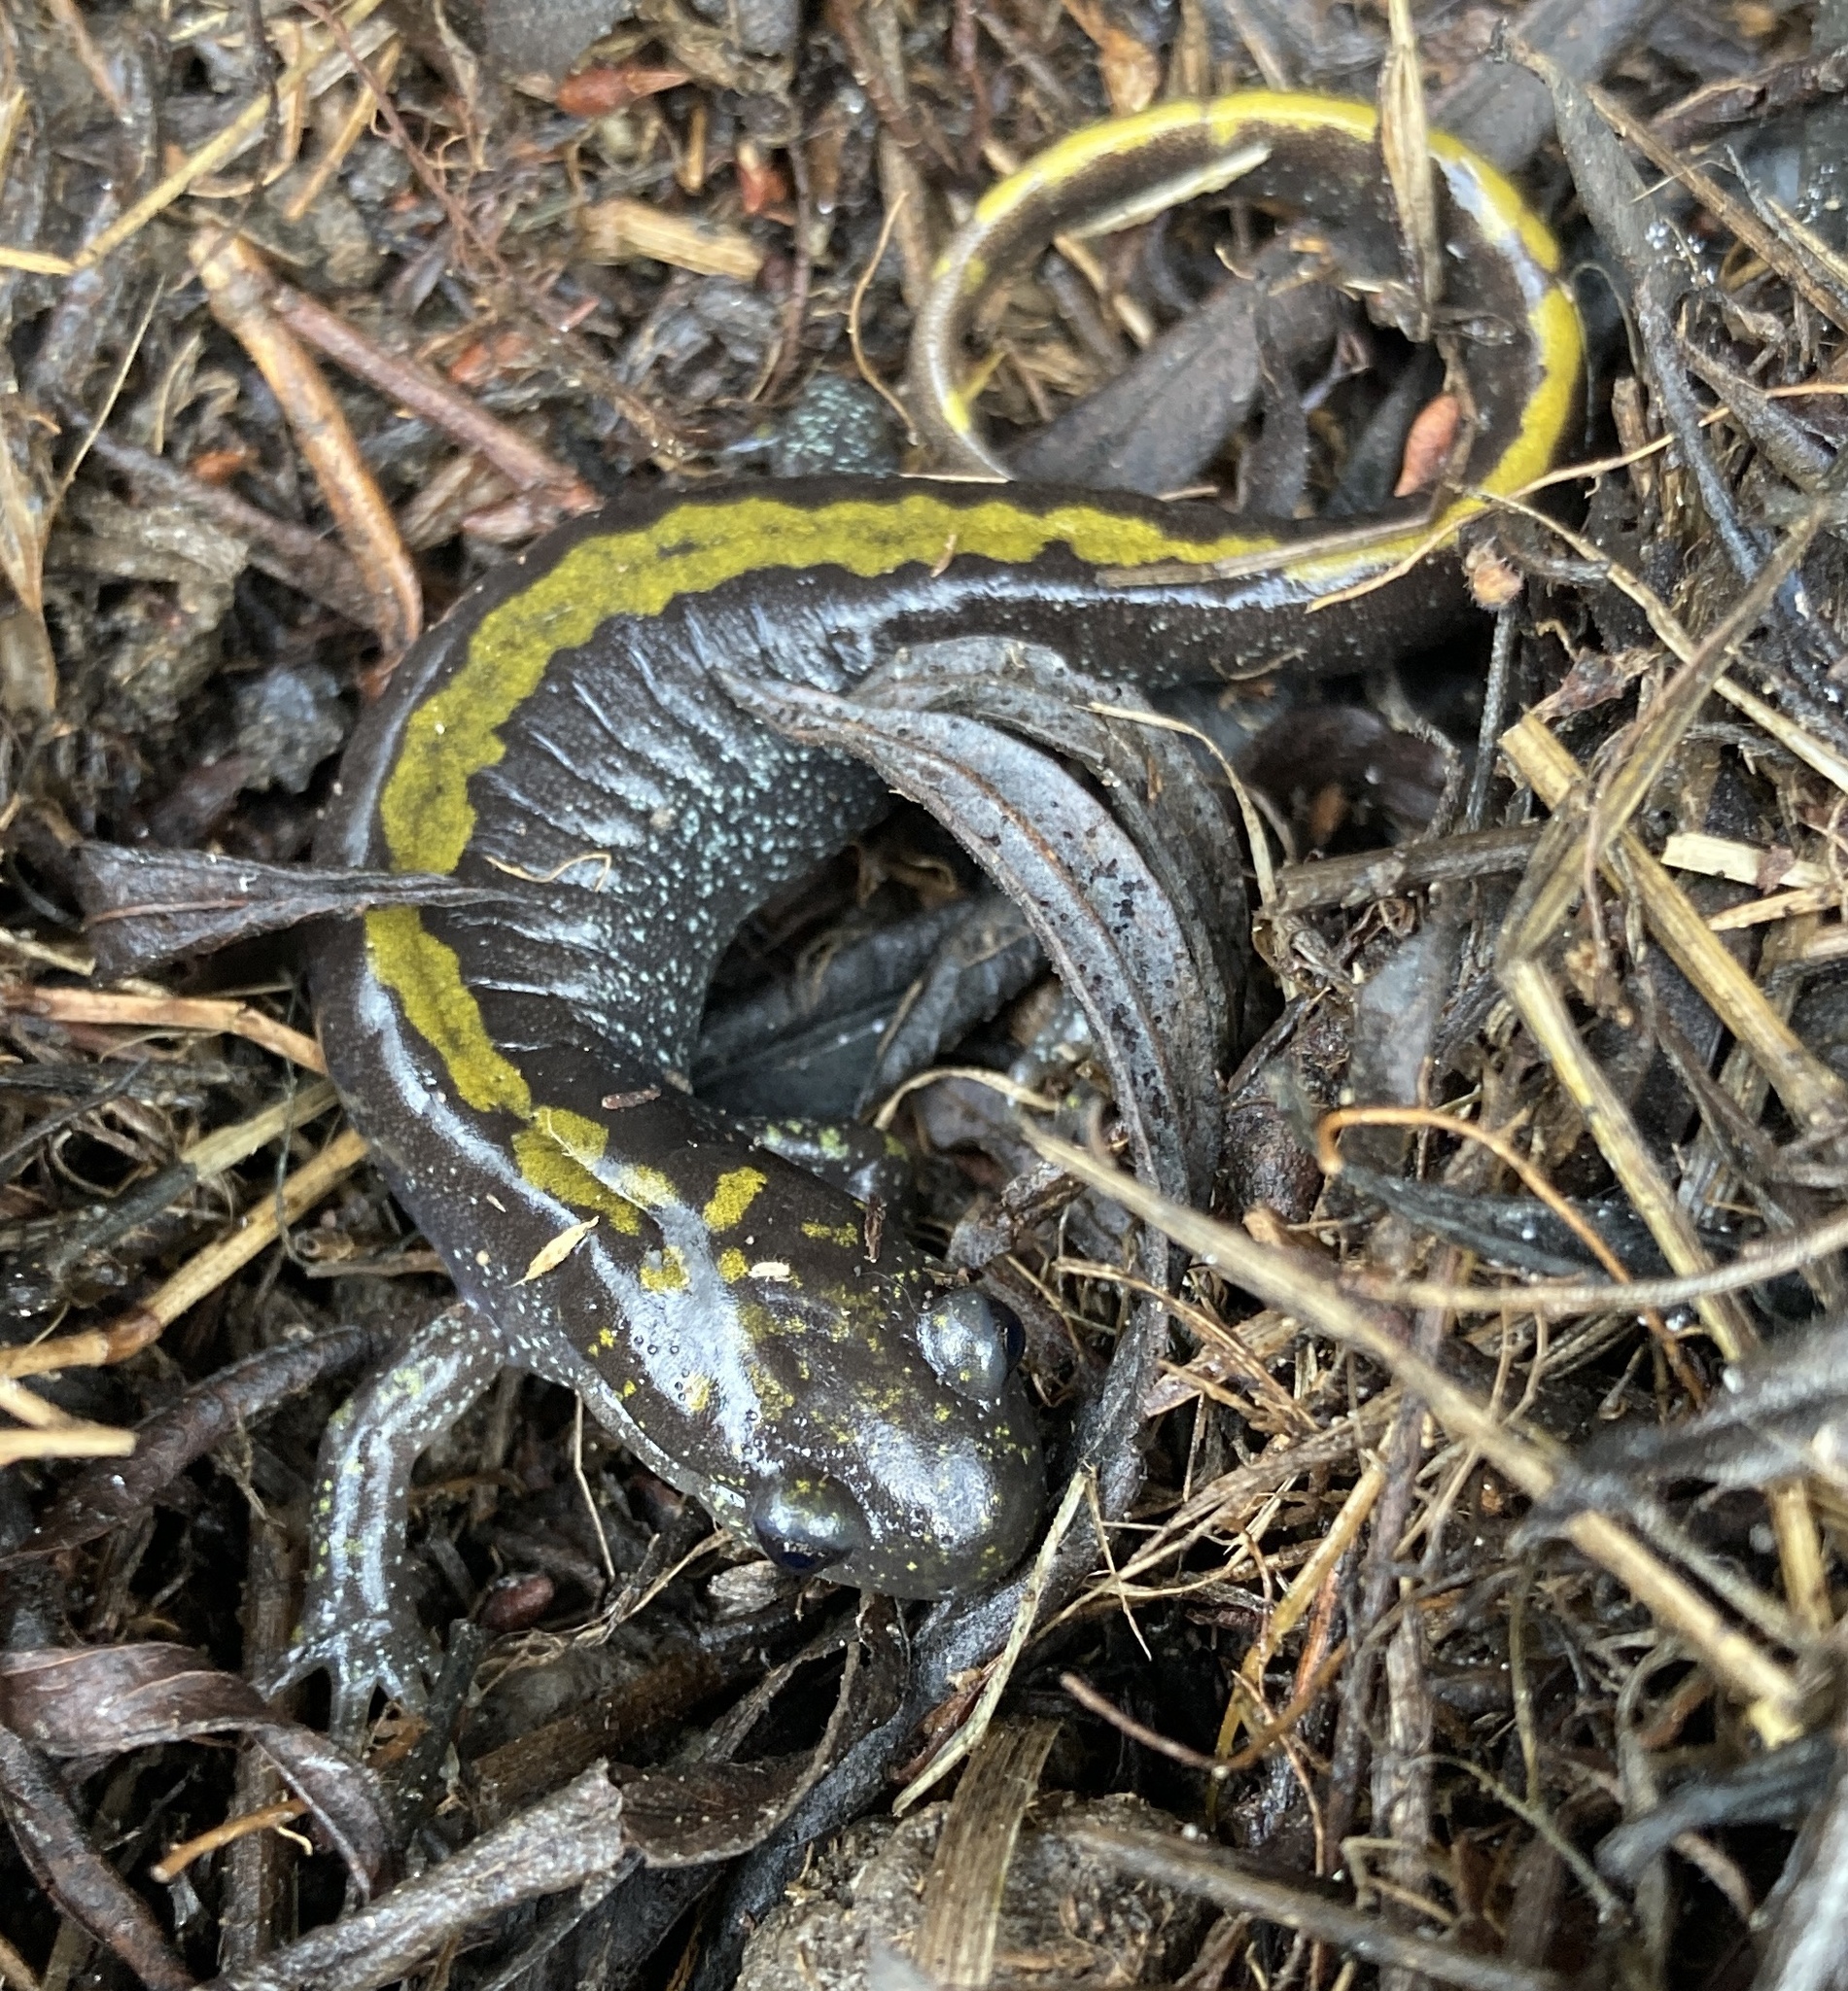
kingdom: Animalia
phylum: Chordata
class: Amphibia
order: Caudata
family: Ambystomatidae
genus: Ambystoma
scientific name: Ambystoma macrodactylum
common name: Long-toed salamander
